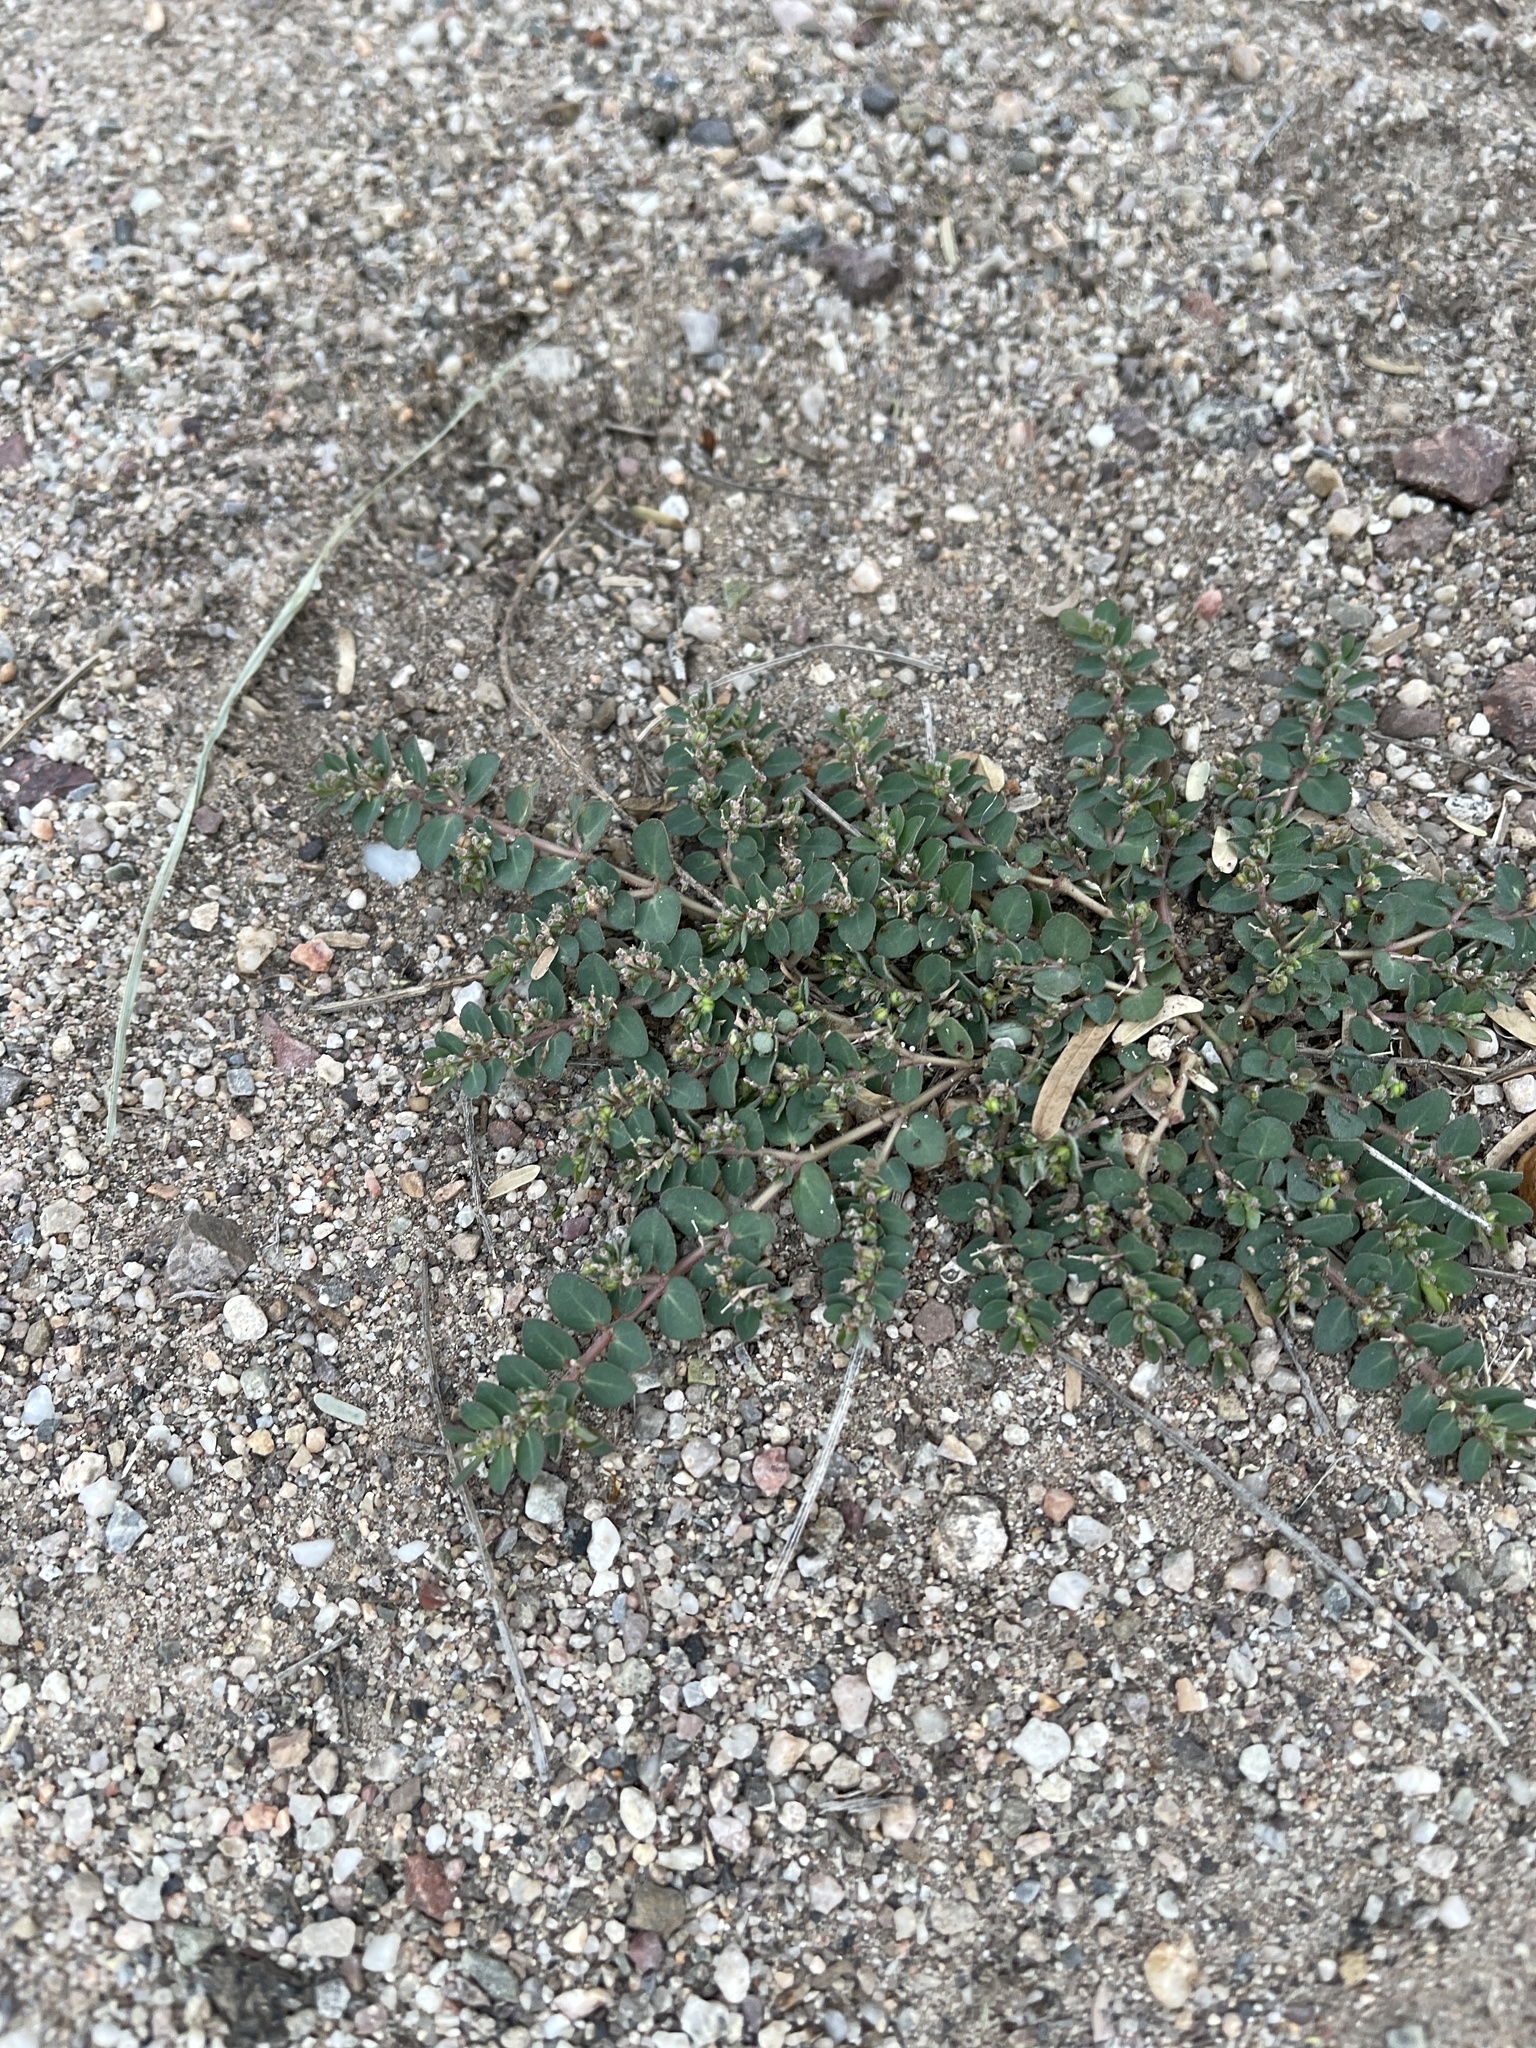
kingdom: Plantae
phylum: Tracheophyta
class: Magnoliopsida
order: Malpighiales
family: Euphorbiaceae
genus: Euphorbia
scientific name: Euphorbia prostrata
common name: Prostrate sandmat
